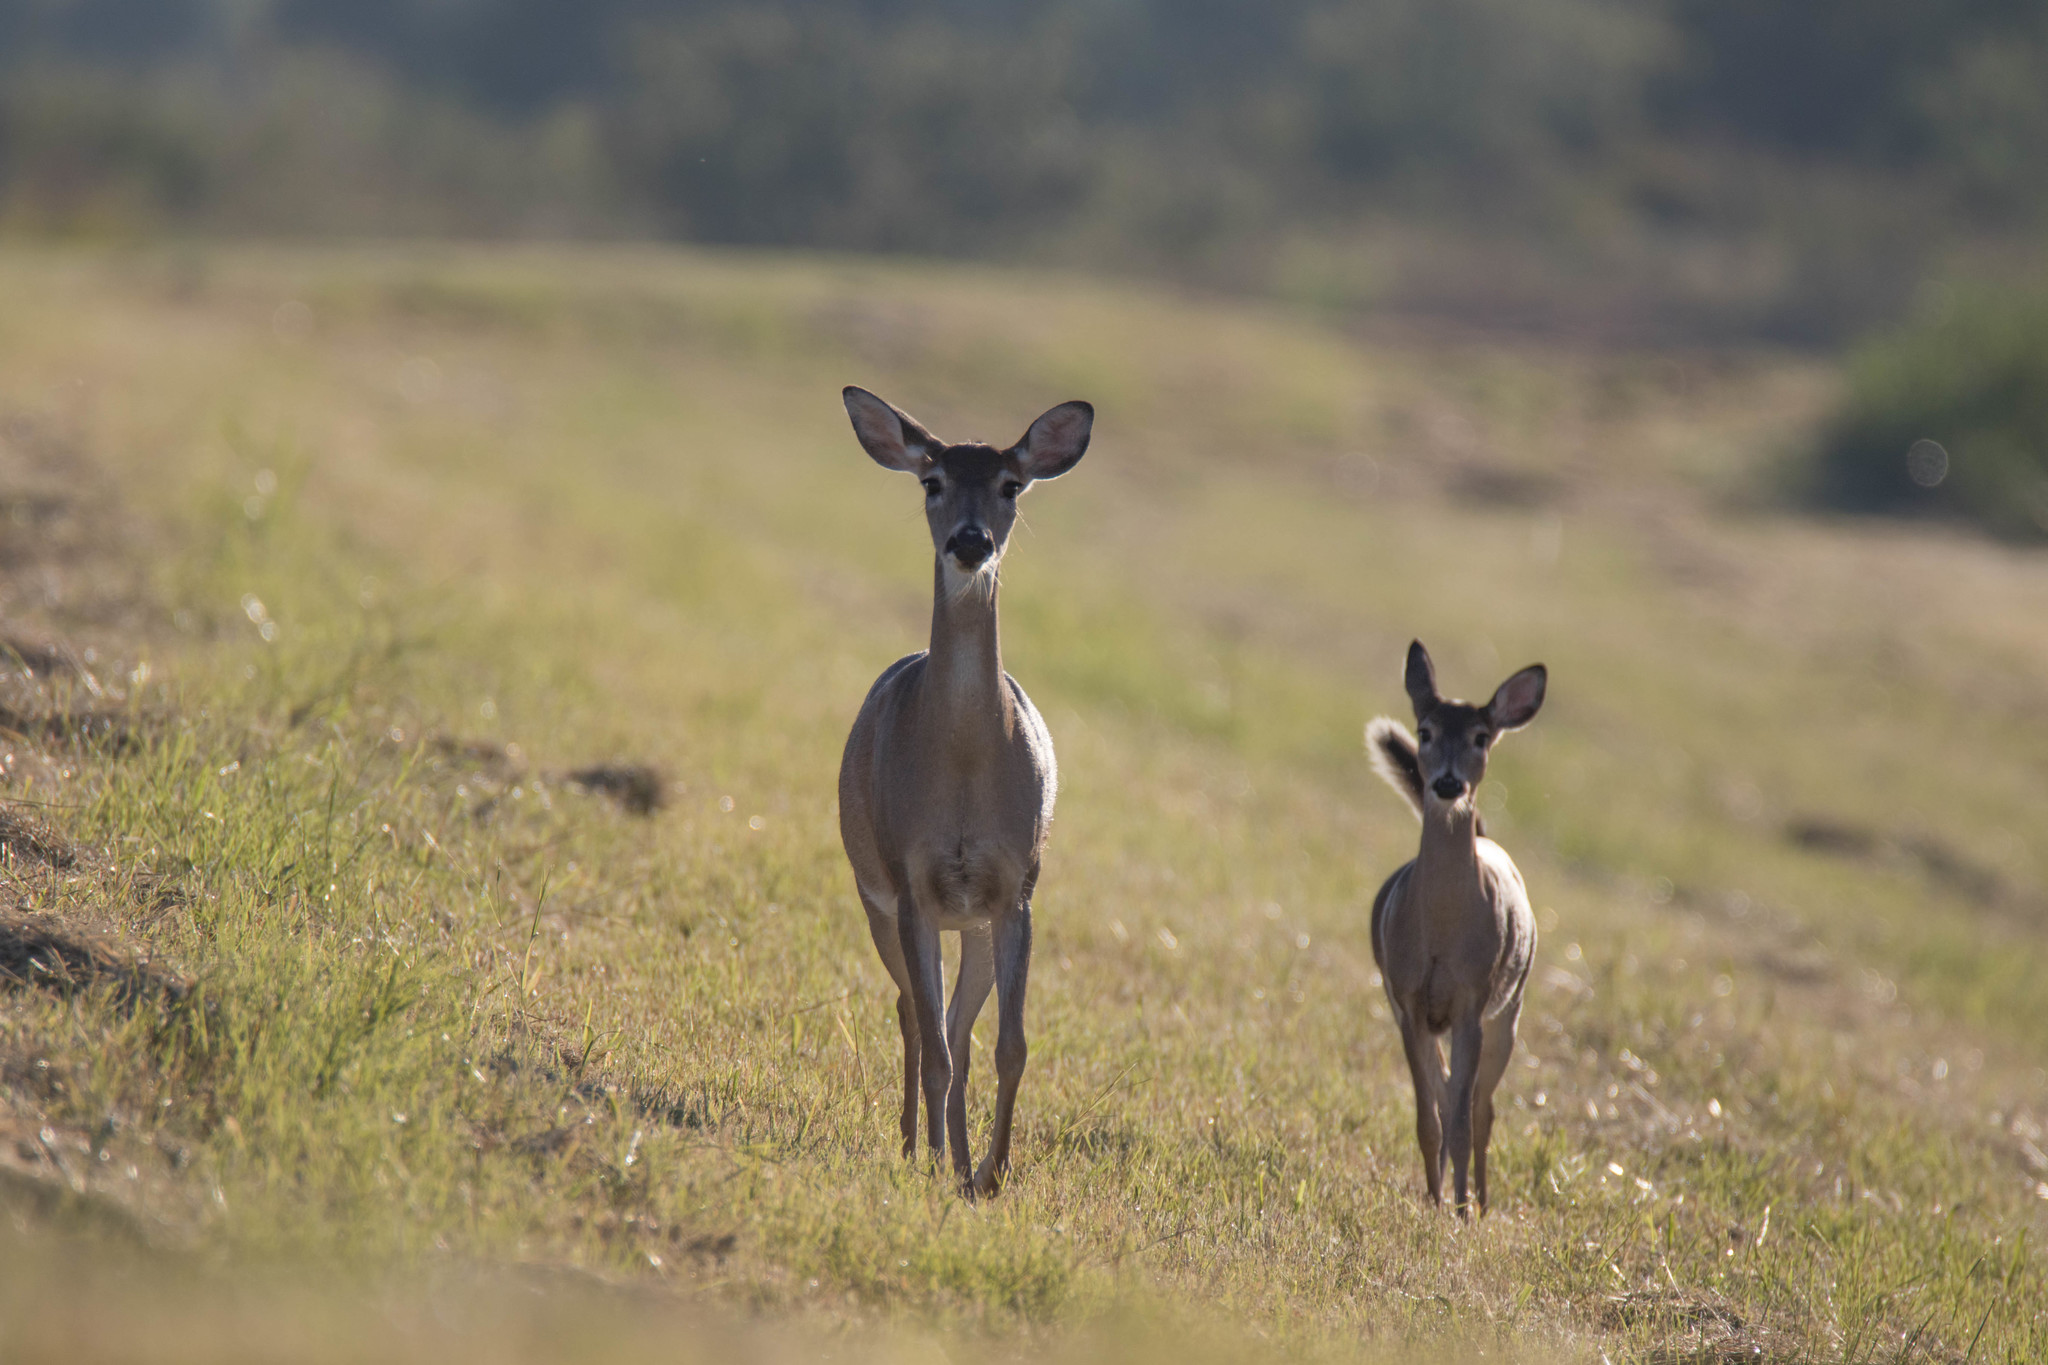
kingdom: Animalia
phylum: Chordata
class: Mammalia
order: Artiodactyla
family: Cervidae
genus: Odocoileus
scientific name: Odocoileus virginianus
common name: White-tailed deer
